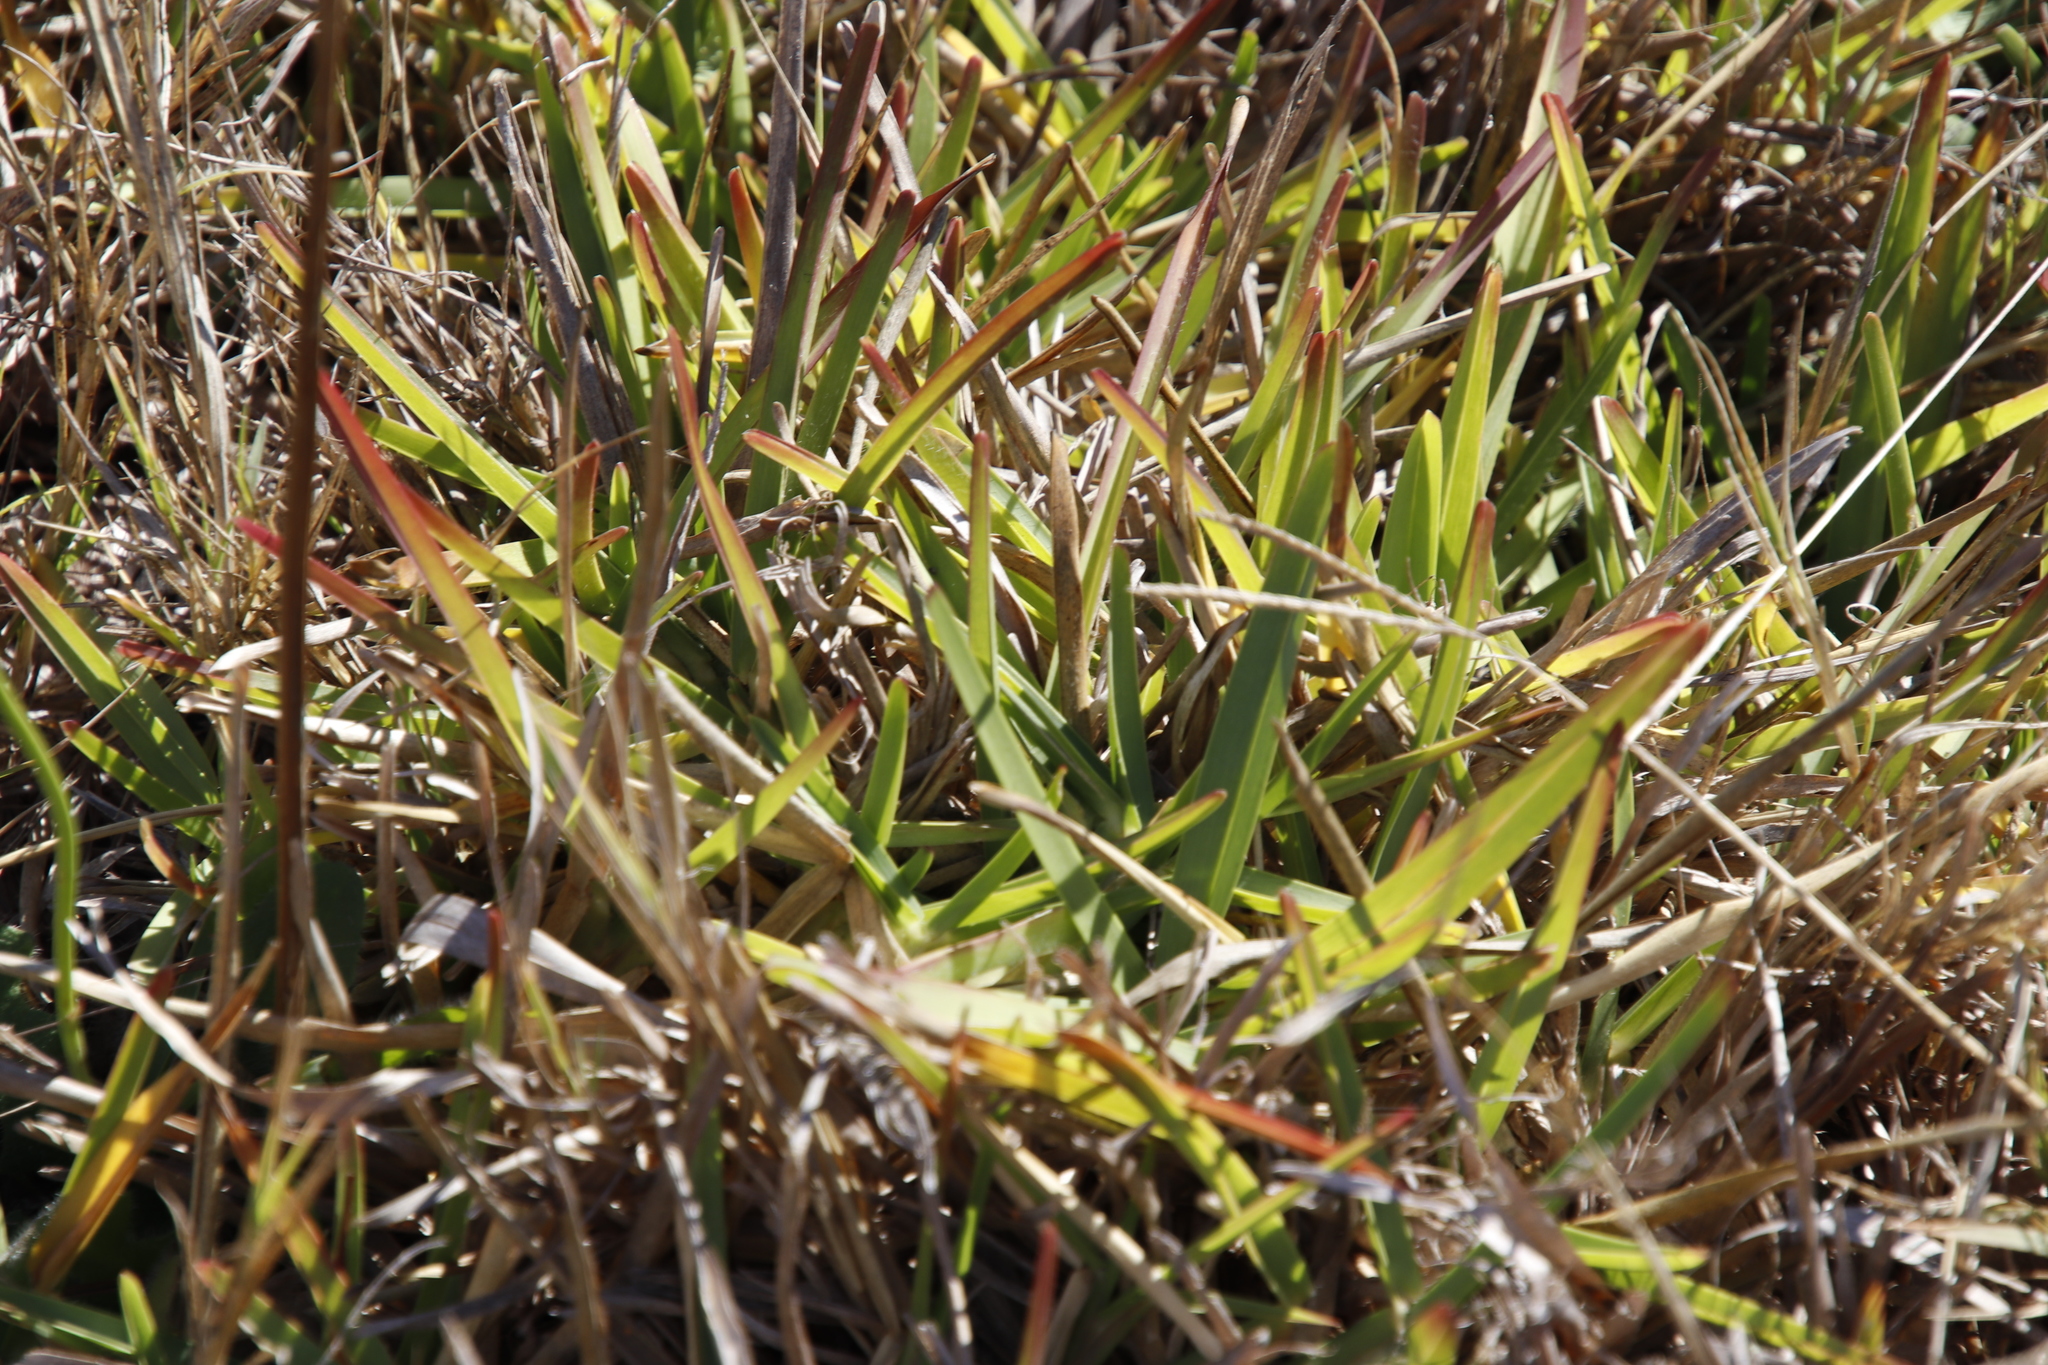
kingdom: Plantae
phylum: Tracheophyta
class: Liliopsida
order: Poales
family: Poaceae
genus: Stenotaphrum
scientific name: Stenotaphrum secundatum
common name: St. augustine grass
